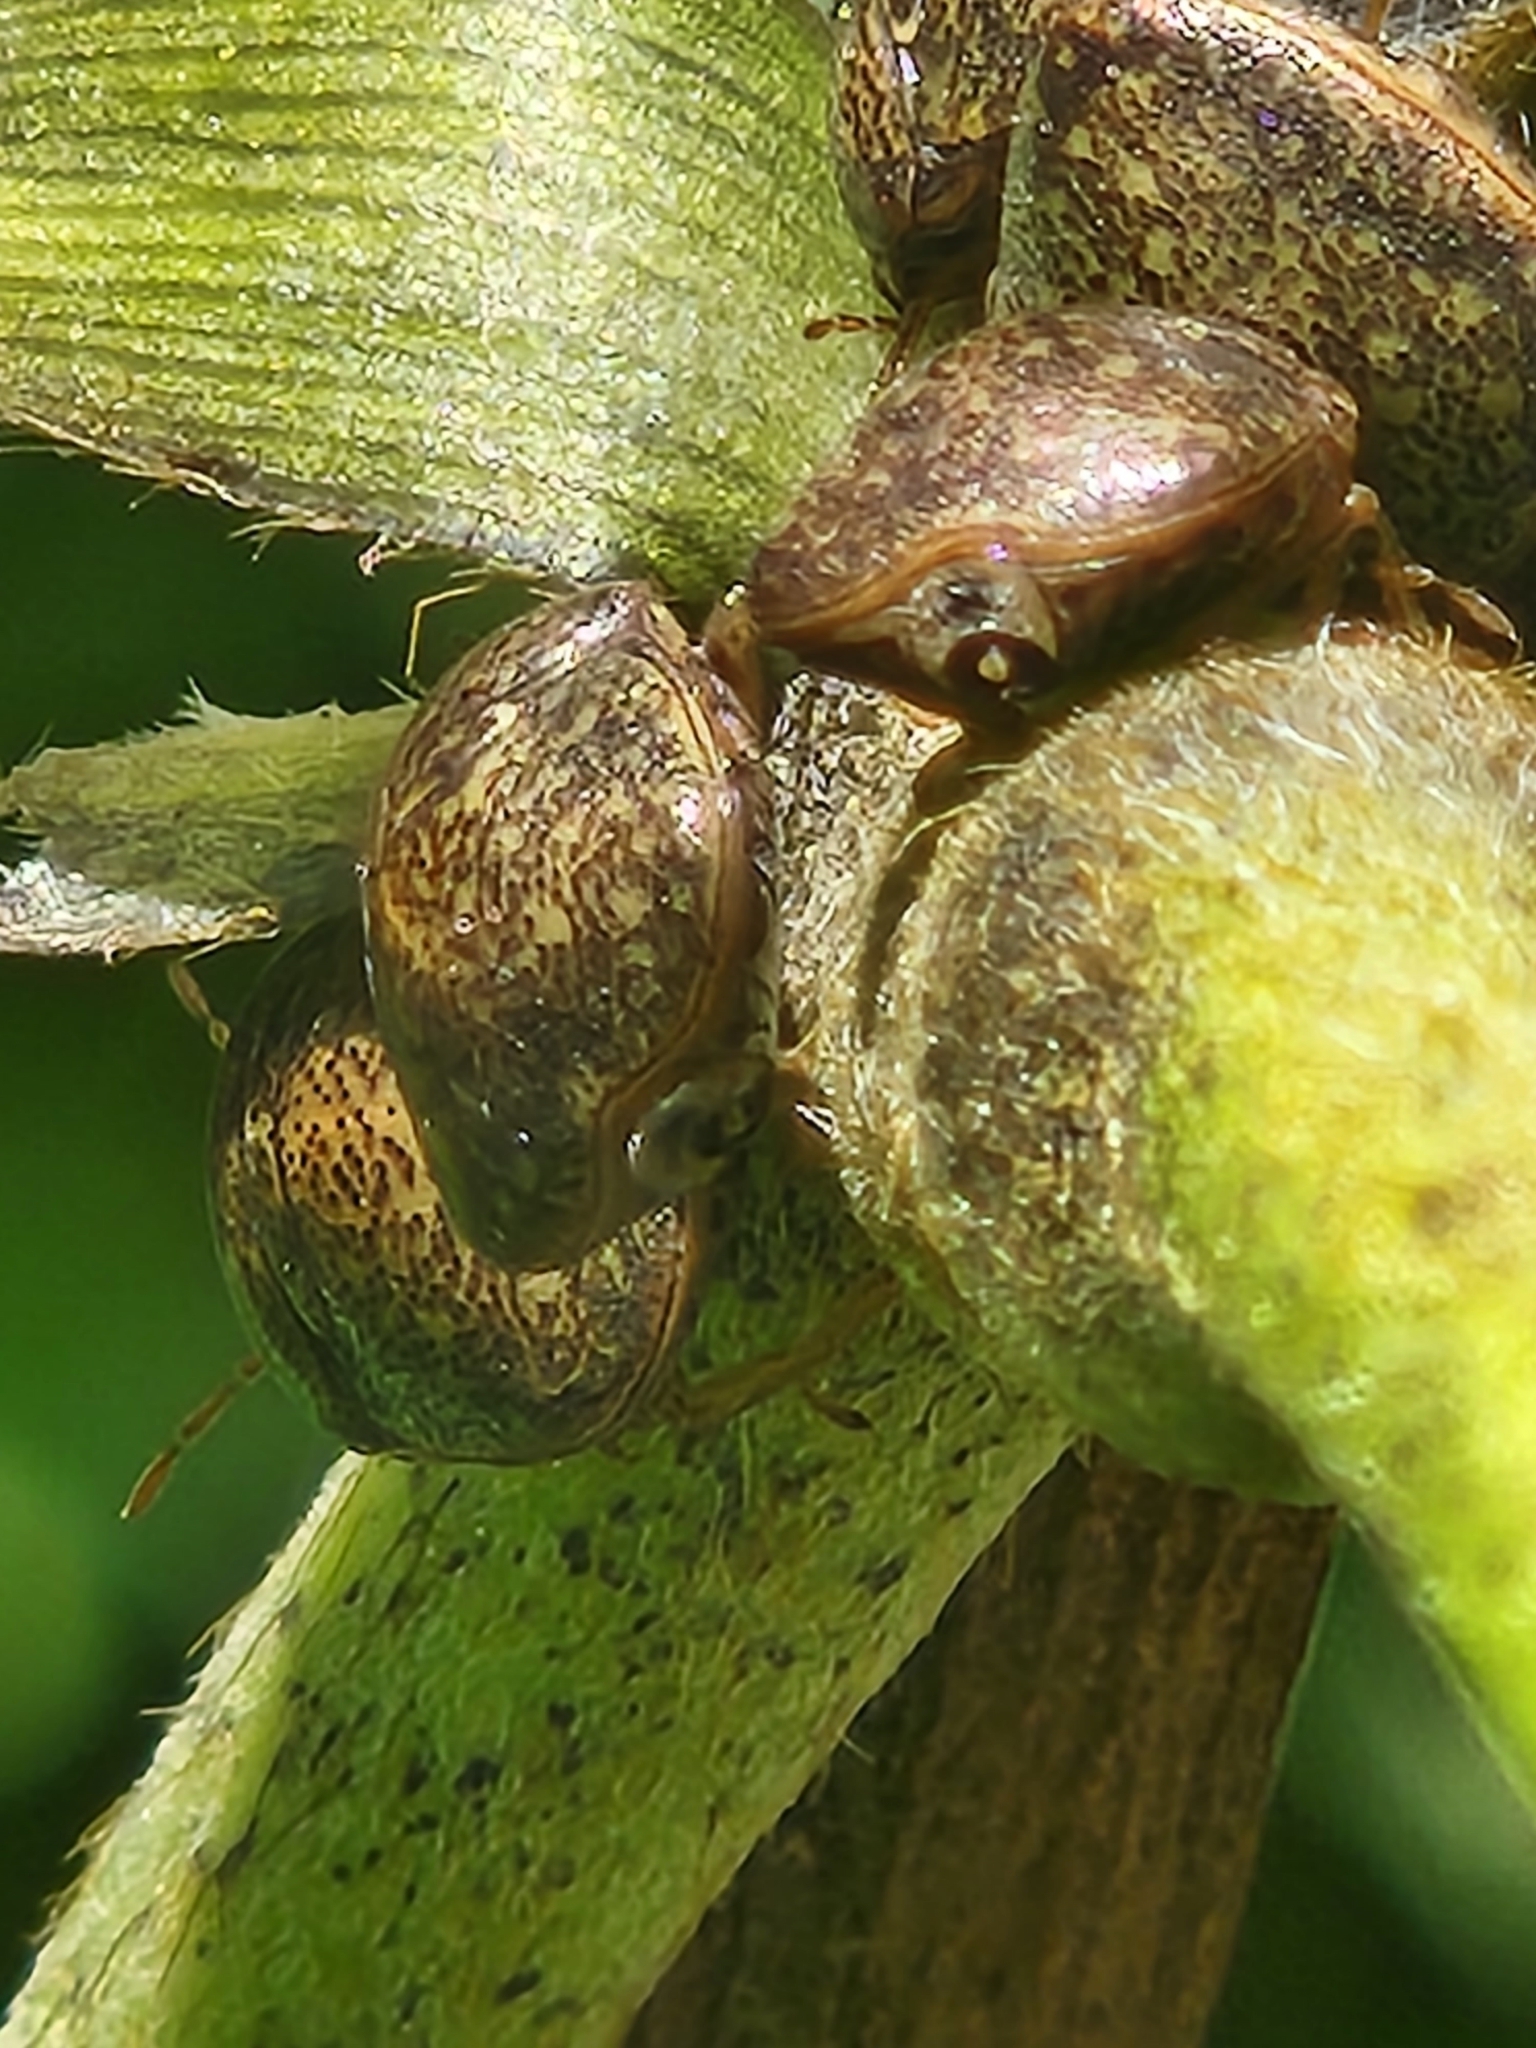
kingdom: Animalia
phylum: Arthropoda
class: Insecta
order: Hemiptera
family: Plataspidae
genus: Megacopta
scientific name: Megacopta cribraria
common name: Bean plataspid
